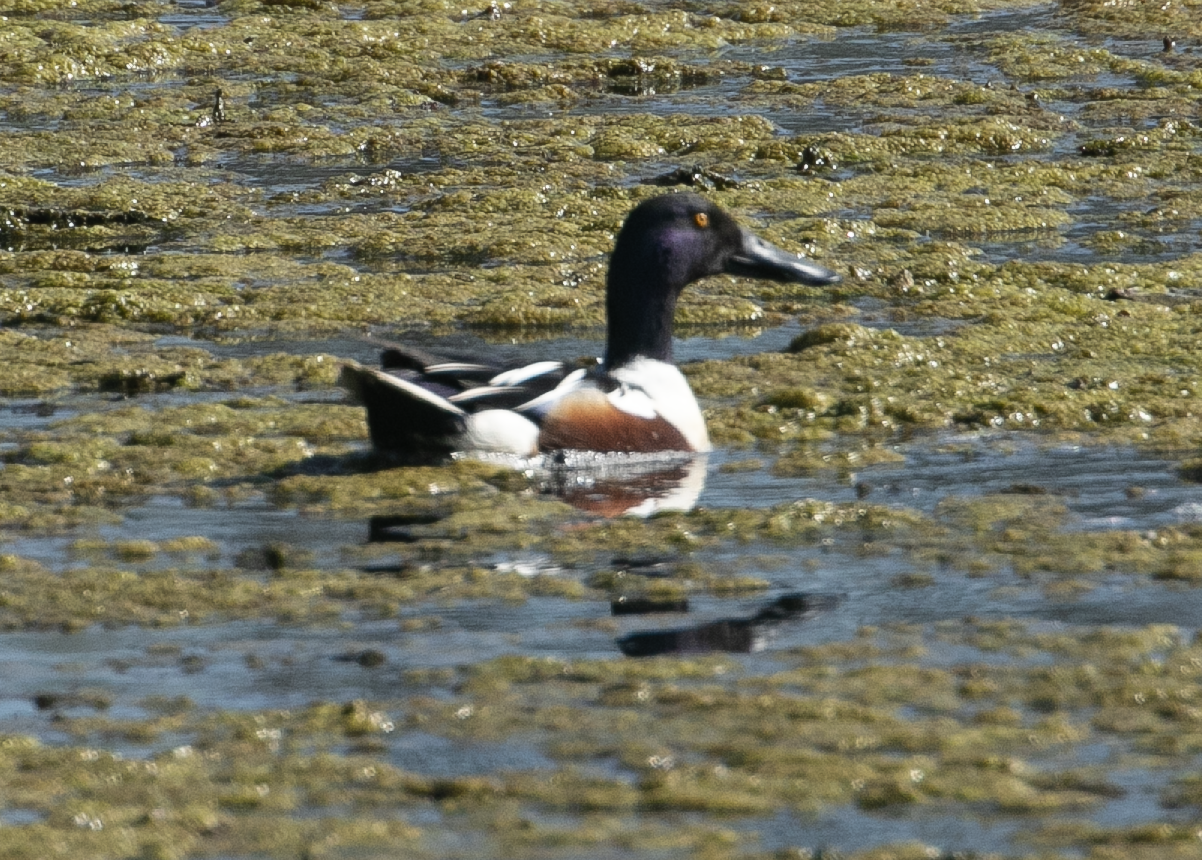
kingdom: Animalia
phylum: Chordata
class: Aves
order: Anseriformes
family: Anatidae
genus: Spatula
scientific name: Spatula clypeata
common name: Northern shoveler
